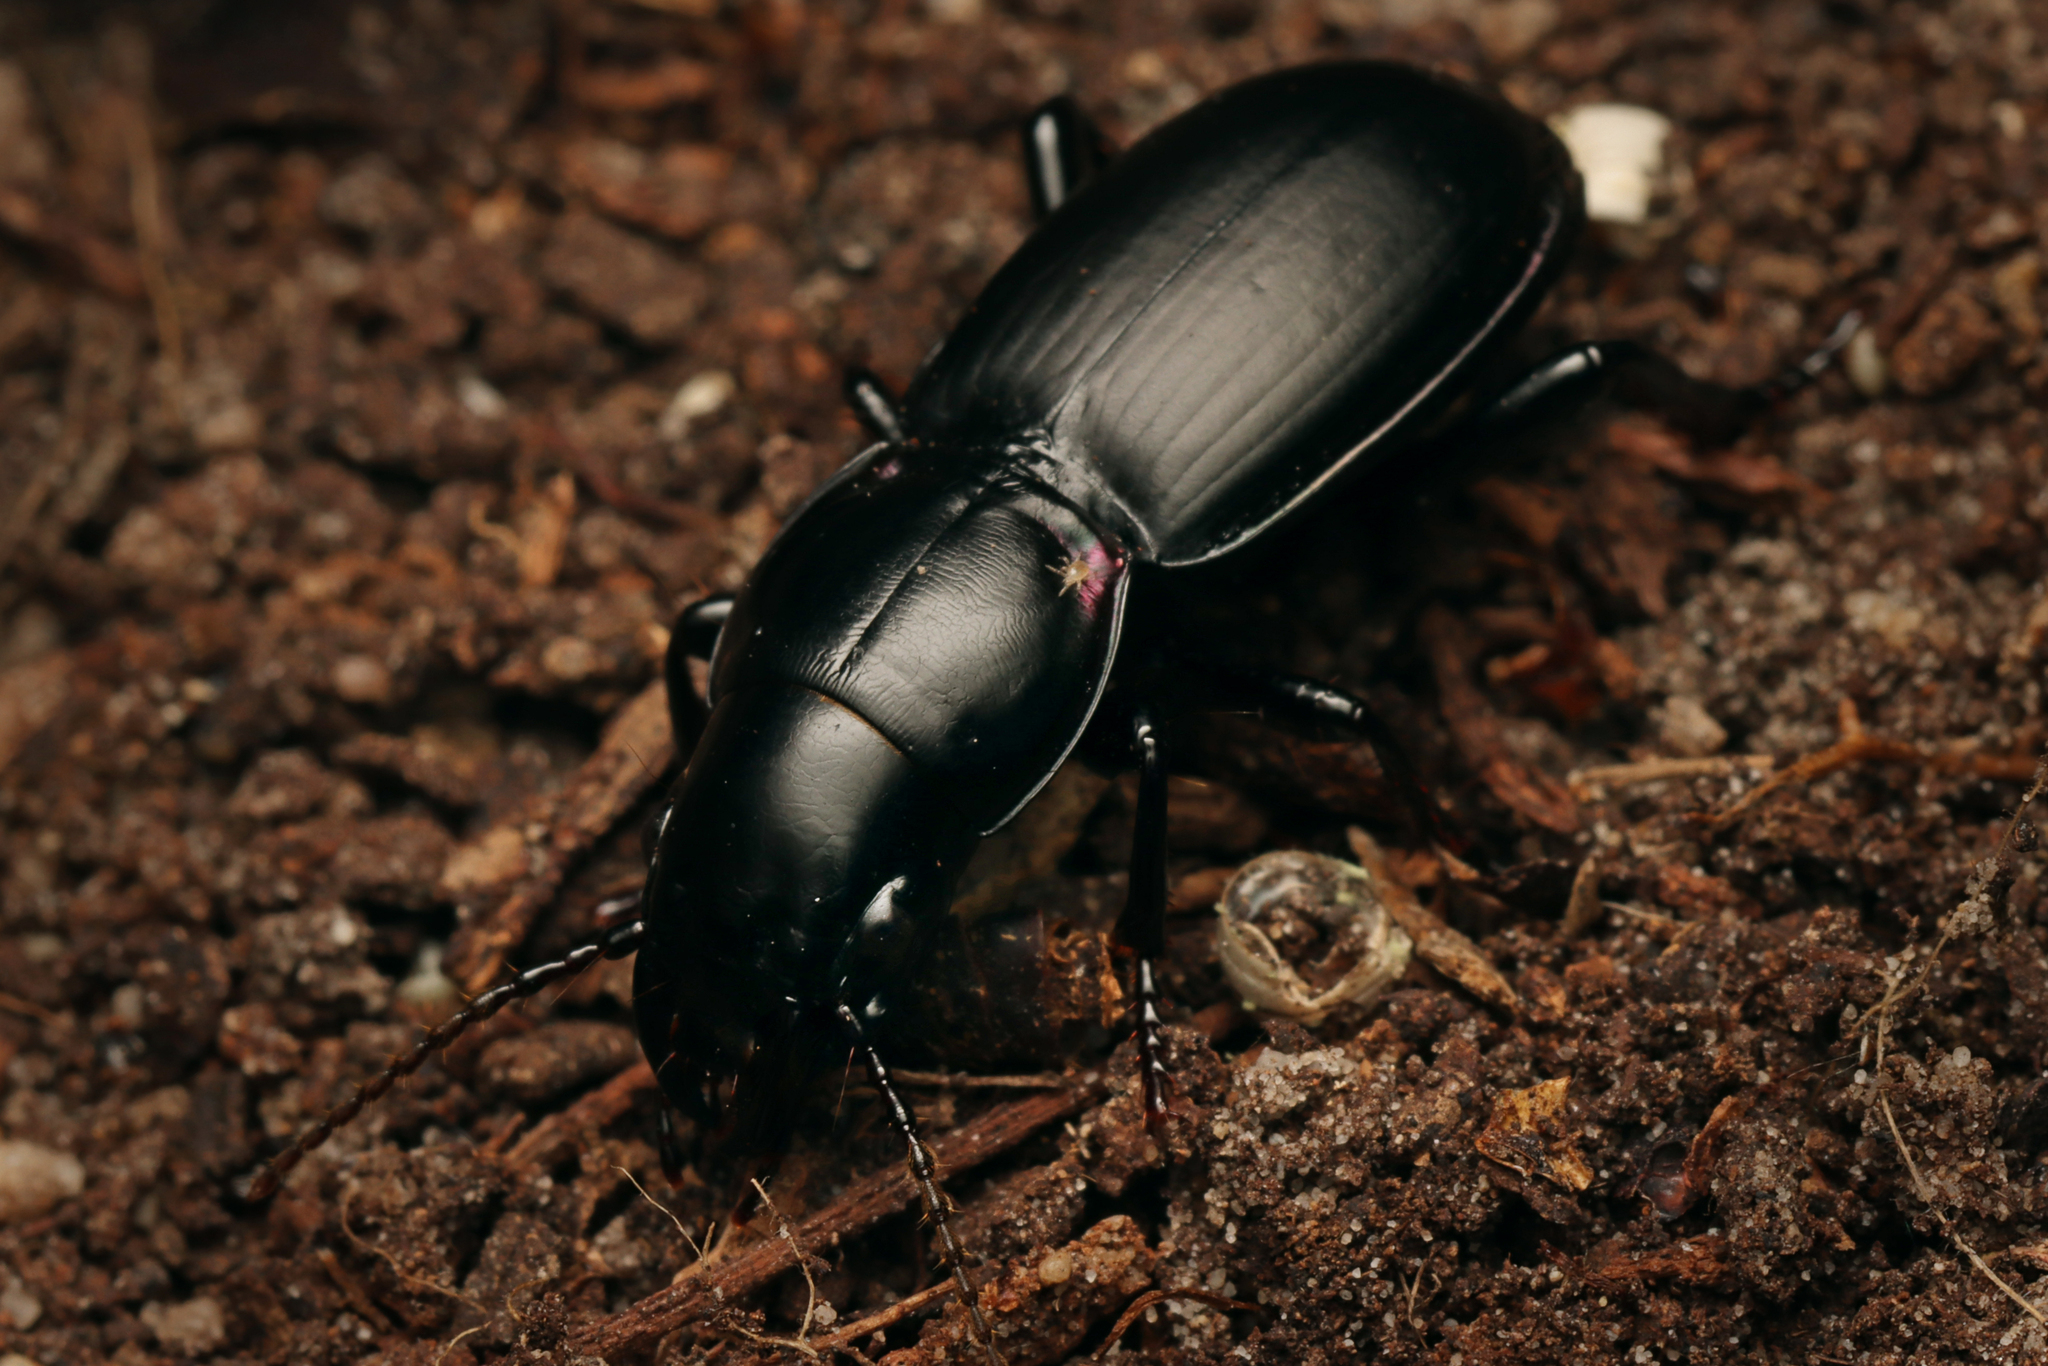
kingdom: Animalia
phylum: Arthropoda
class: Insecta
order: Coleoptera
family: Carabidae
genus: Secatophus
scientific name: Secatophus australis
